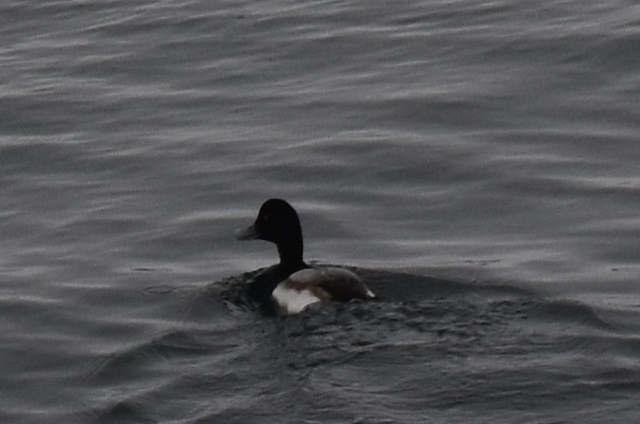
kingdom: Animalia
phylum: Chordata
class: Aves
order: Anseriformes
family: Anatidae
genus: Aythya
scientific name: Aythya marila
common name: Greater scaup
